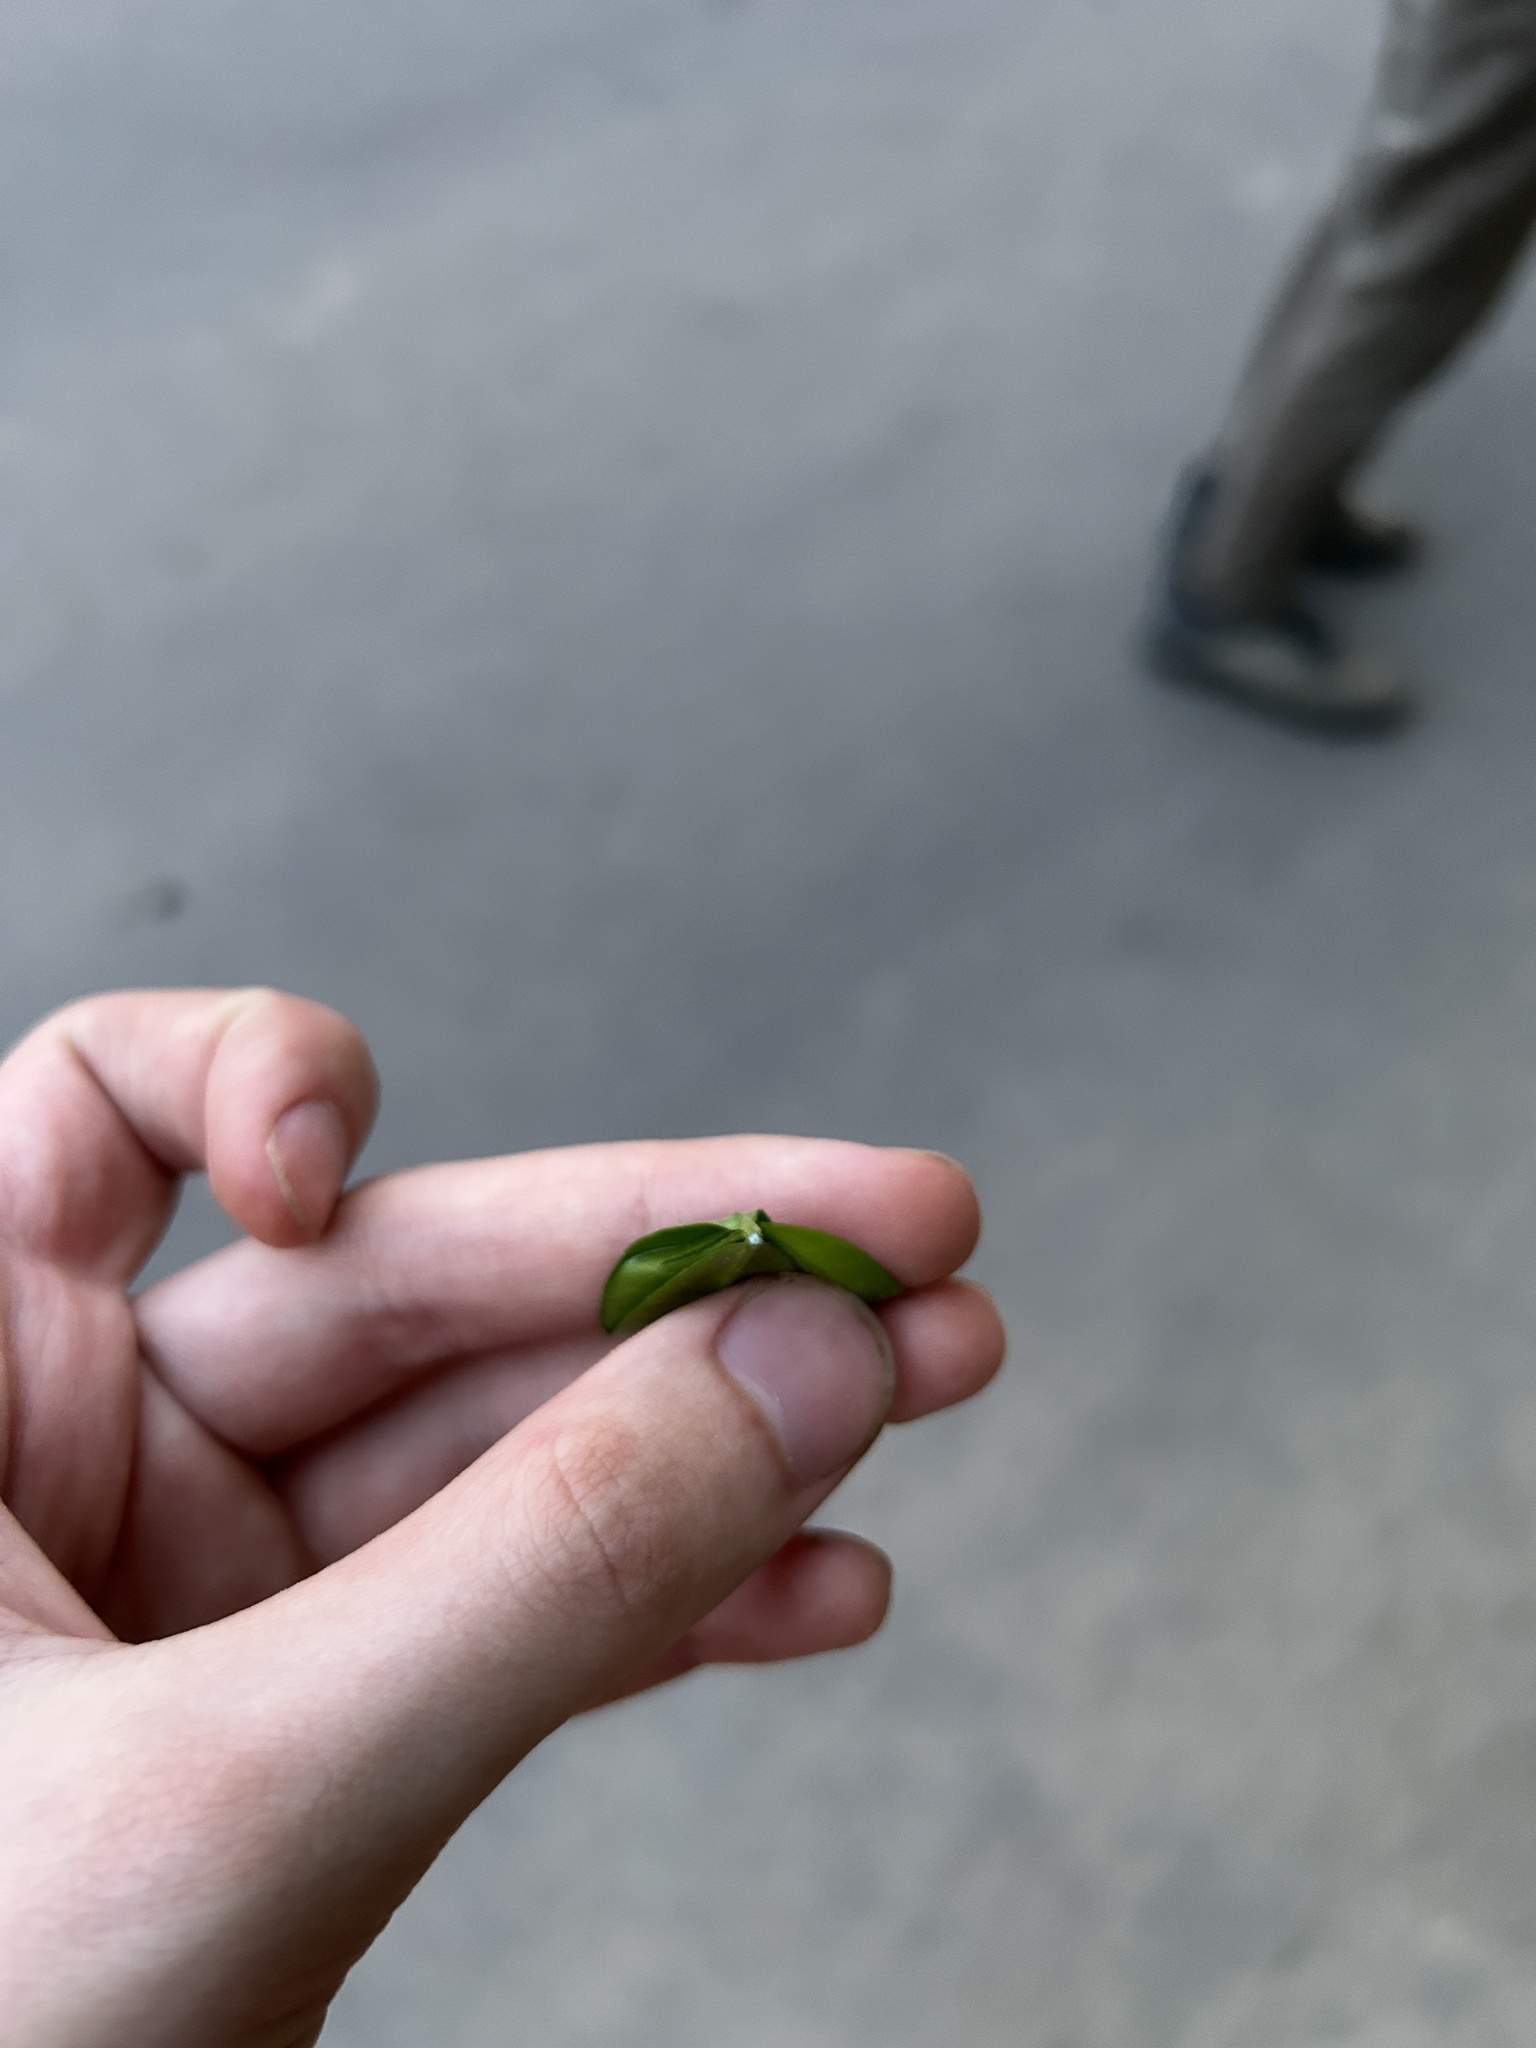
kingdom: Plantae
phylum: Tracheophyta
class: Magnoliopsida
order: Gentianales
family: Apocynaceae
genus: Vinca
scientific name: Vinca minor
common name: Lesser periwinkle
